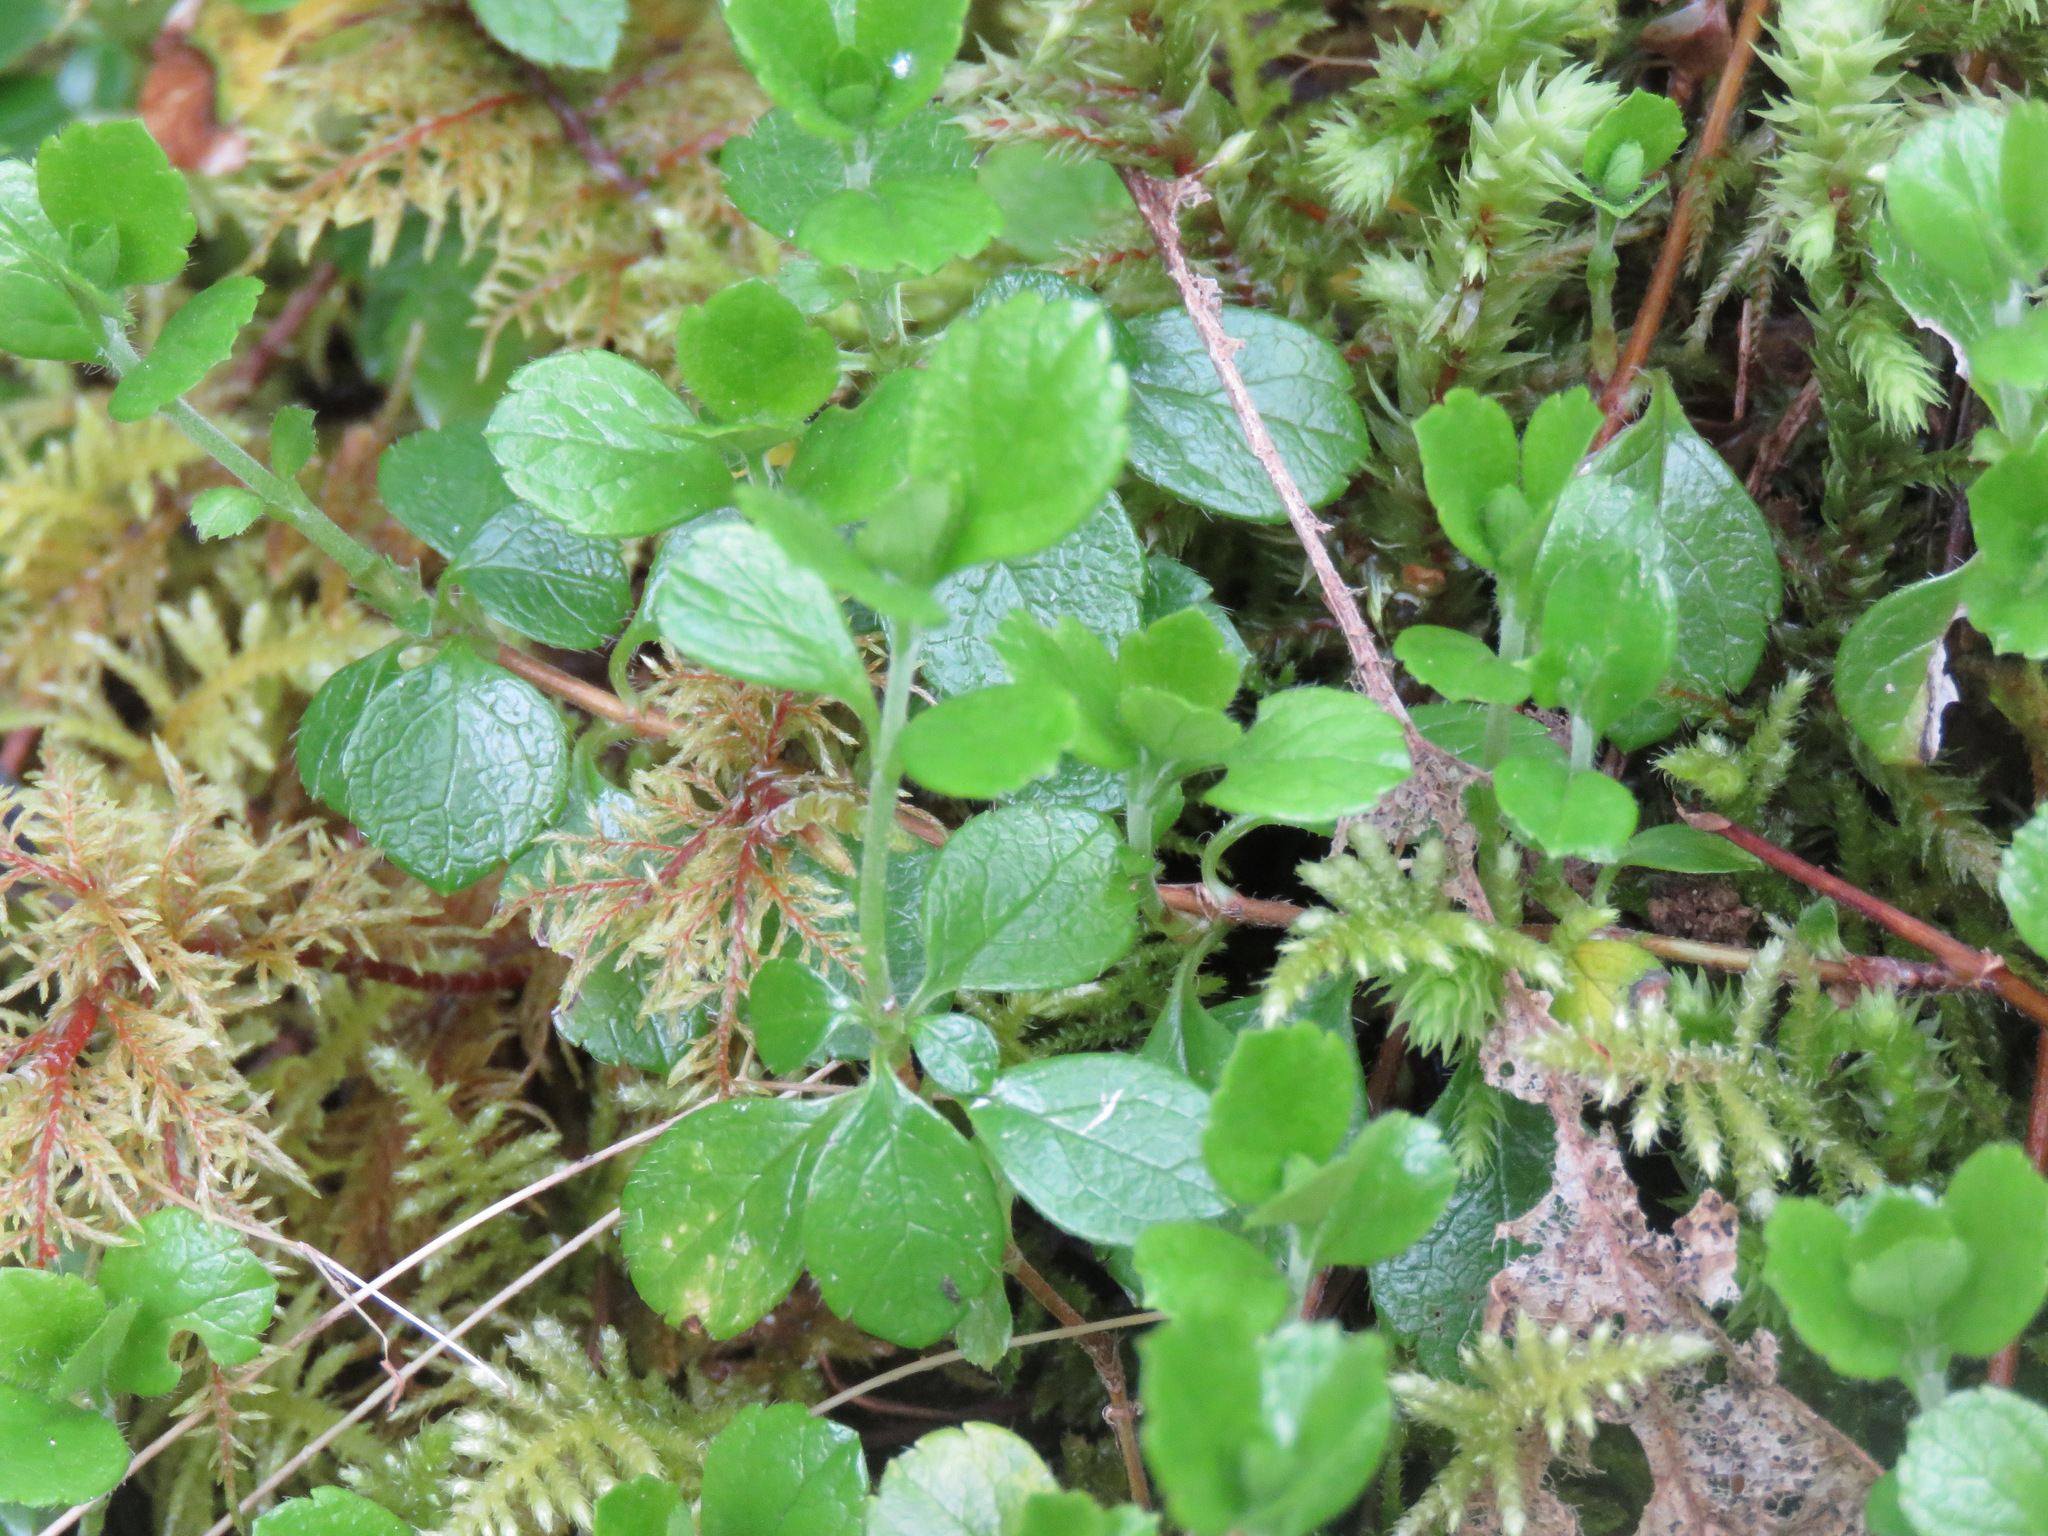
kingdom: Plantae
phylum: Tracheophyta
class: Magnoliopsida
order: Dipsacales
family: Caprifoliaceae
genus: Linnaea
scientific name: Linnaea borealis
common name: Twinflower
